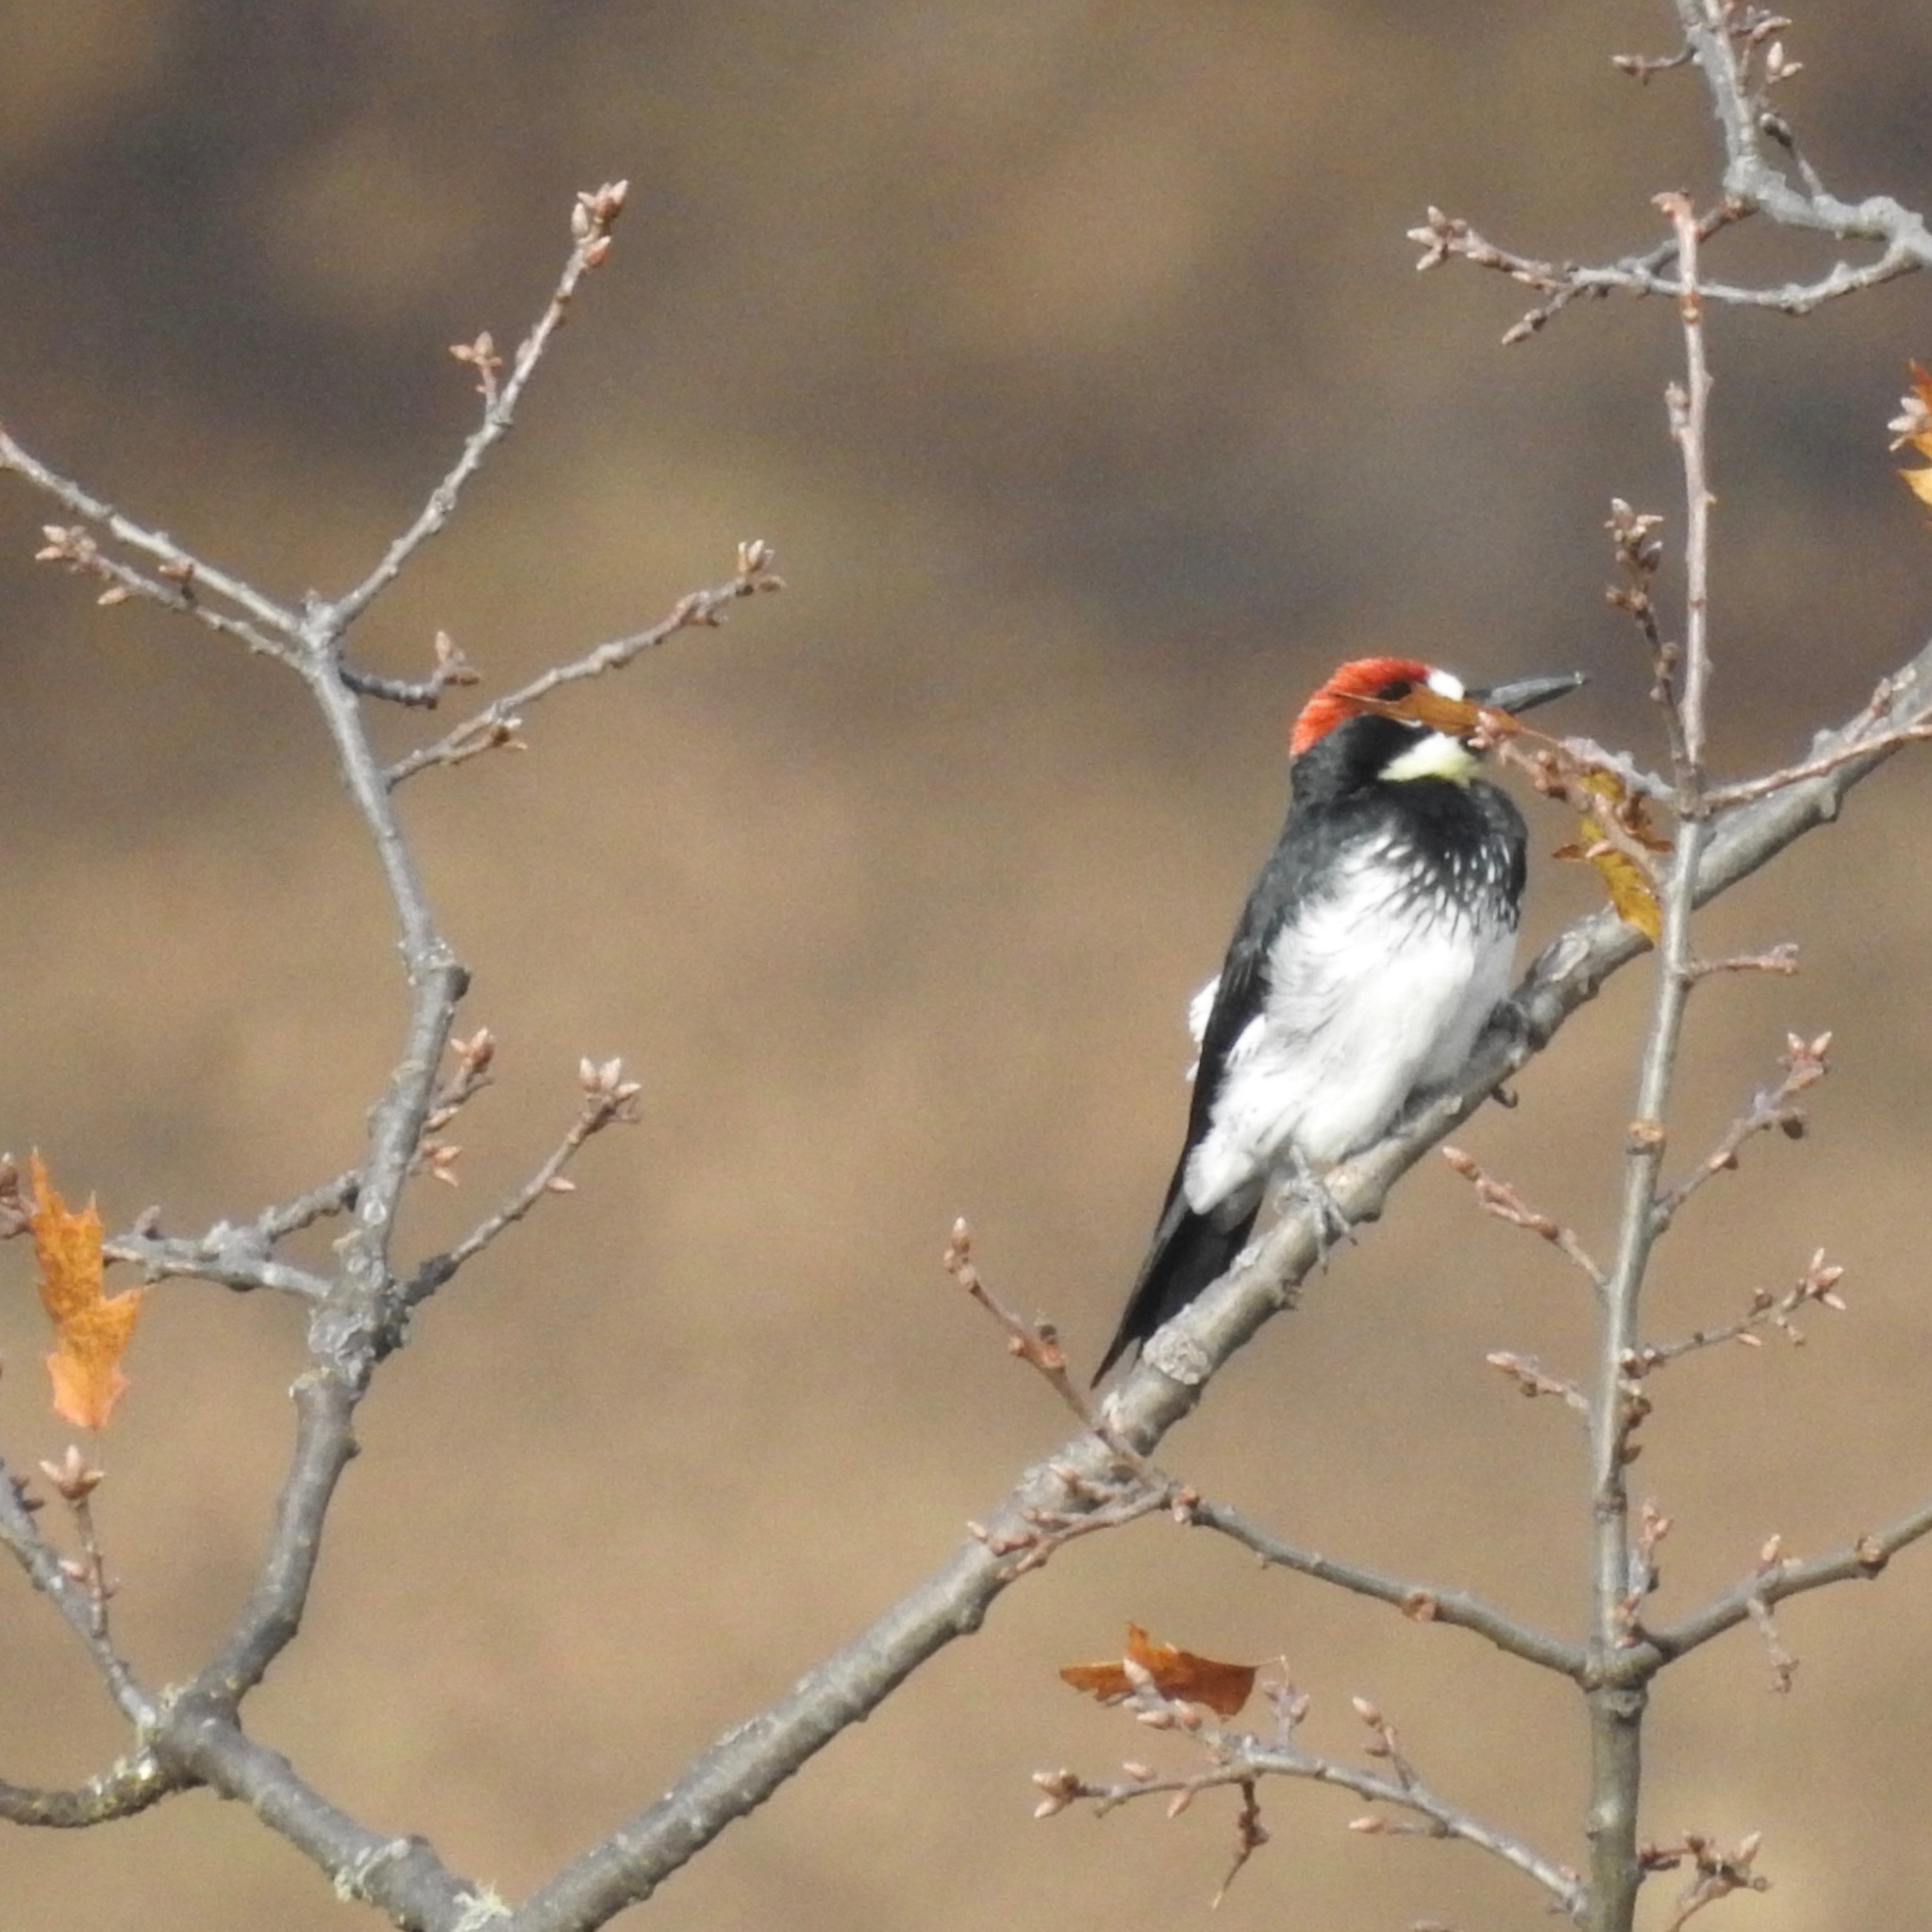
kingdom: Animalia
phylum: Chordata
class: Aves
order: Piciformes
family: Picidae
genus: Melanerpes
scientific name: Melanerpes formicivorus
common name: Acorn woodpecker
